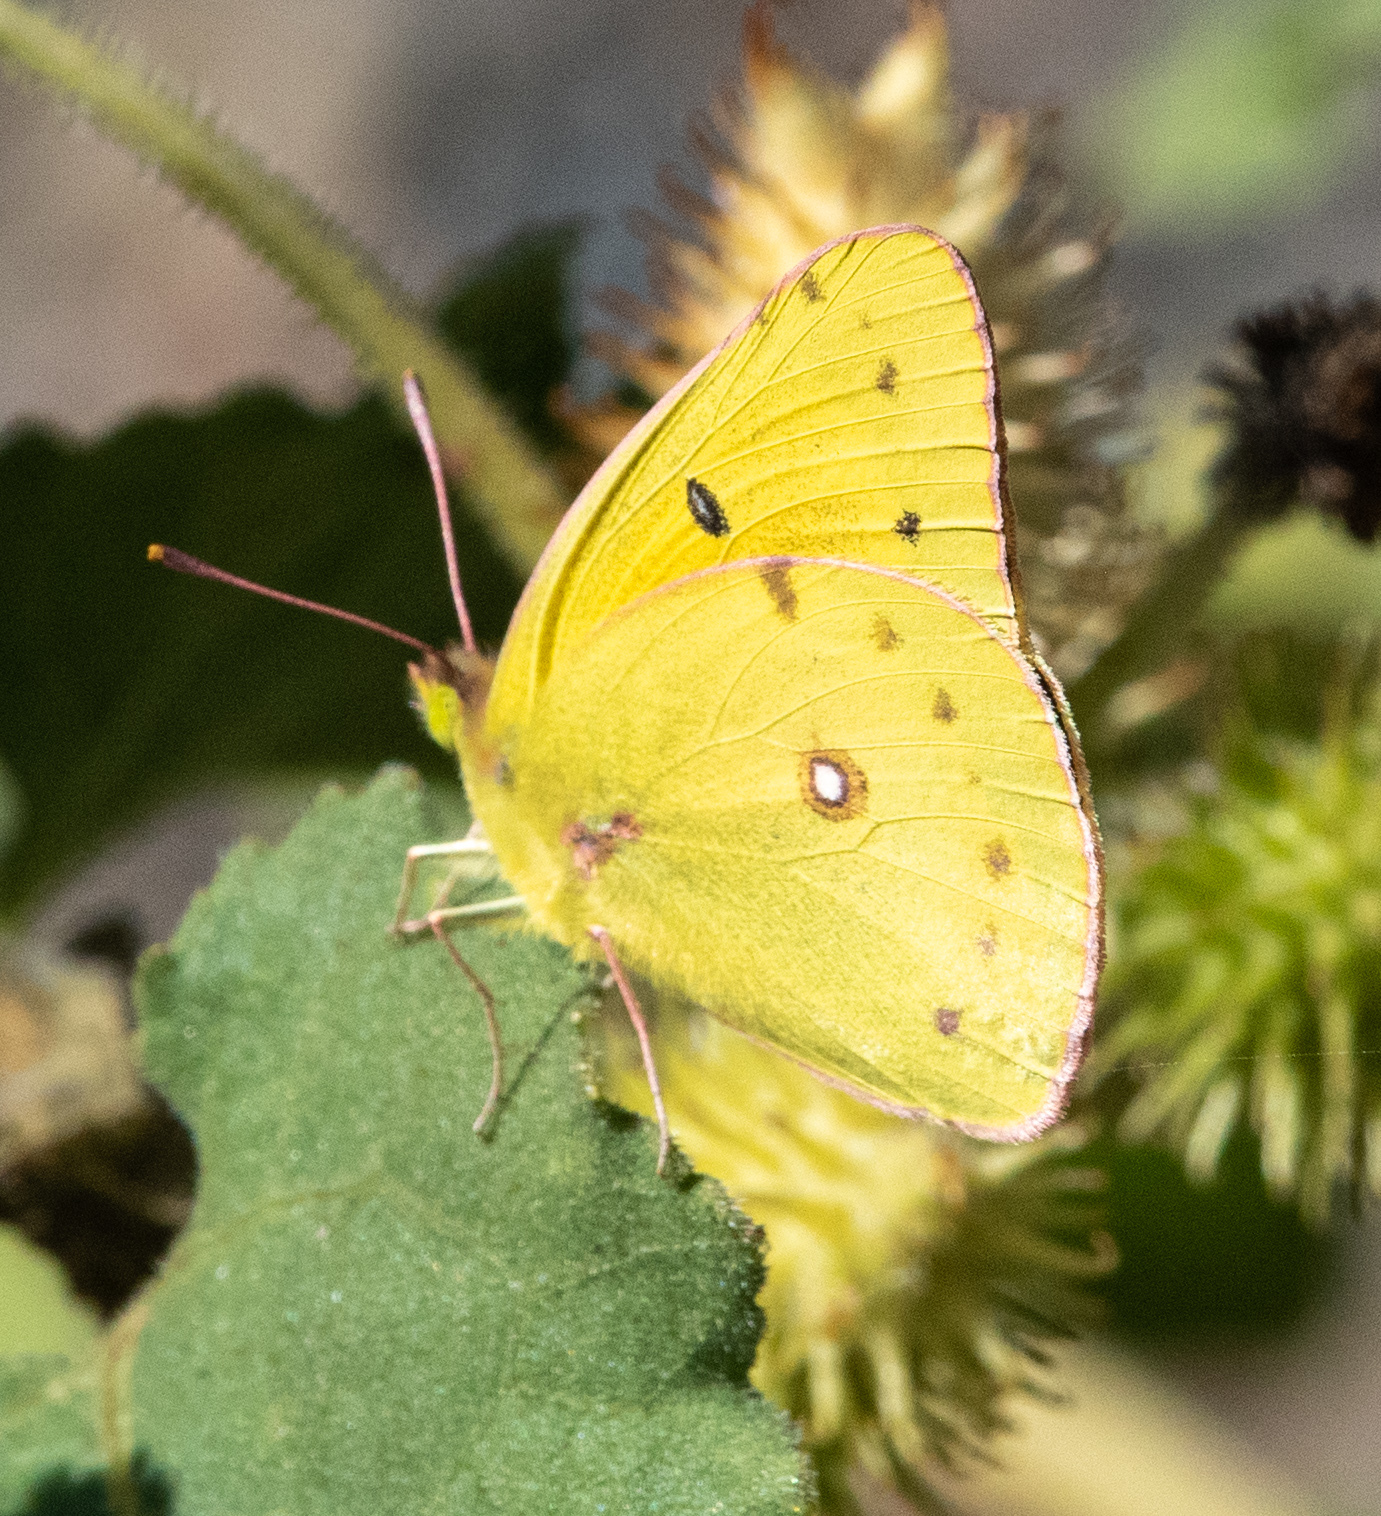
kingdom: Animalia
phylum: Arthropoda
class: Insecta
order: Lepidoptera
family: Pieridae
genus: Colias
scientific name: Colias eurytheme
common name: Alfalfa butterfly
